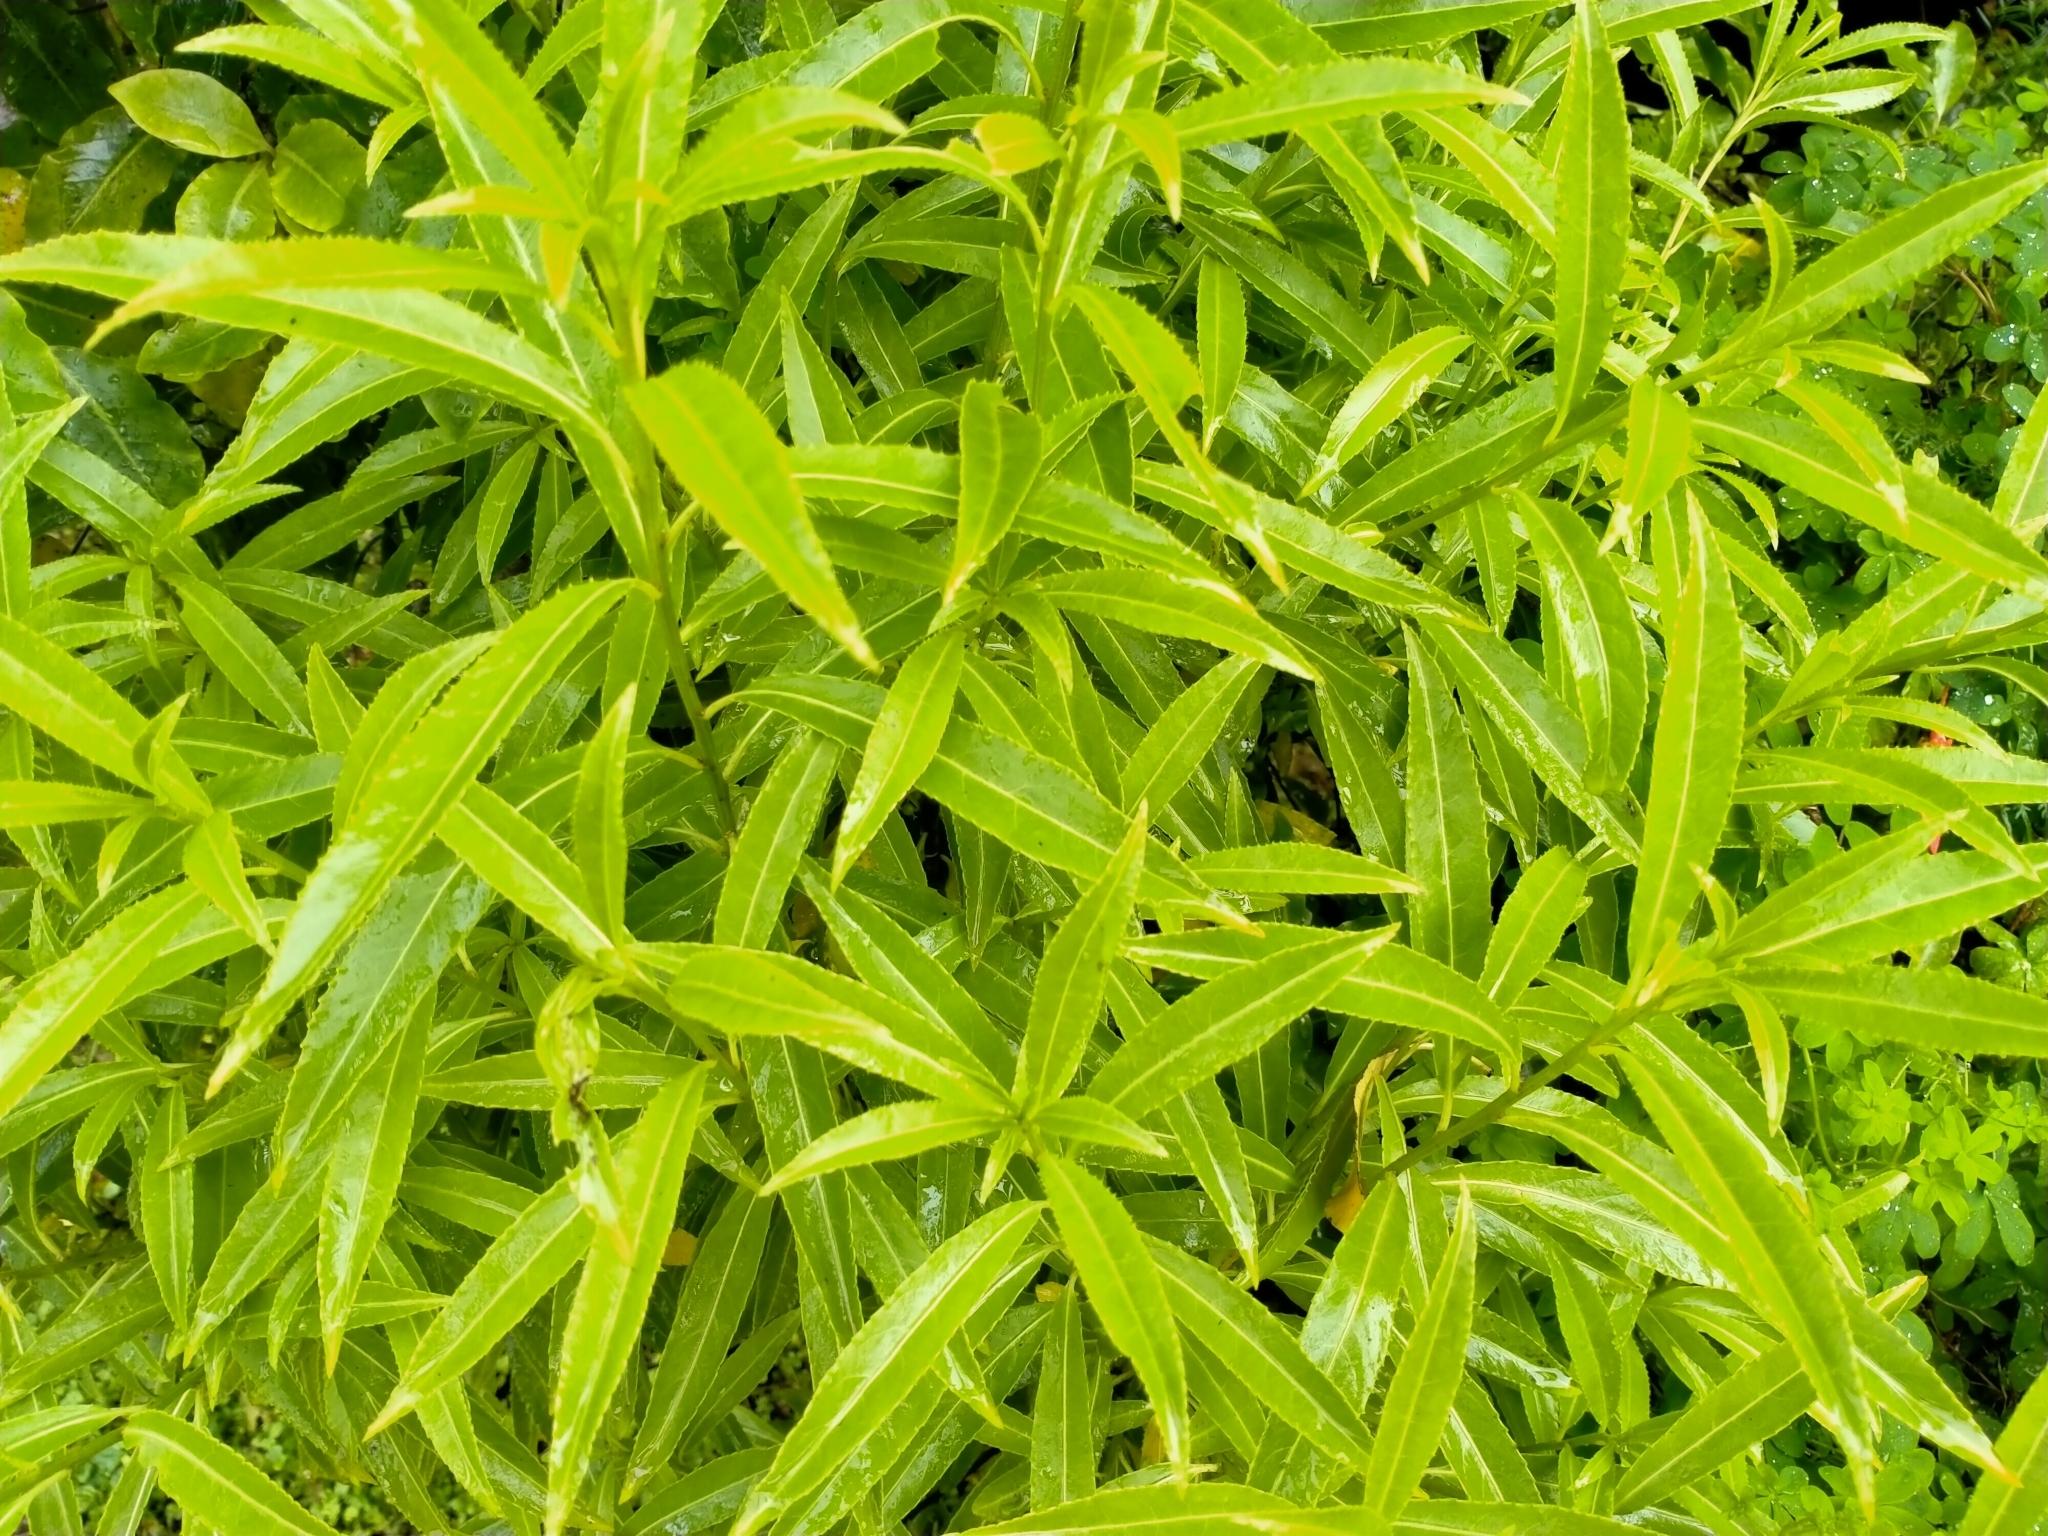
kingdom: Plantae
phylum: Tracheophyta
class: Magnoliopsida
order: Malpighiales
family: Violaceae
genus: Melicytus
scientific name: Melicytus lanceolatus
